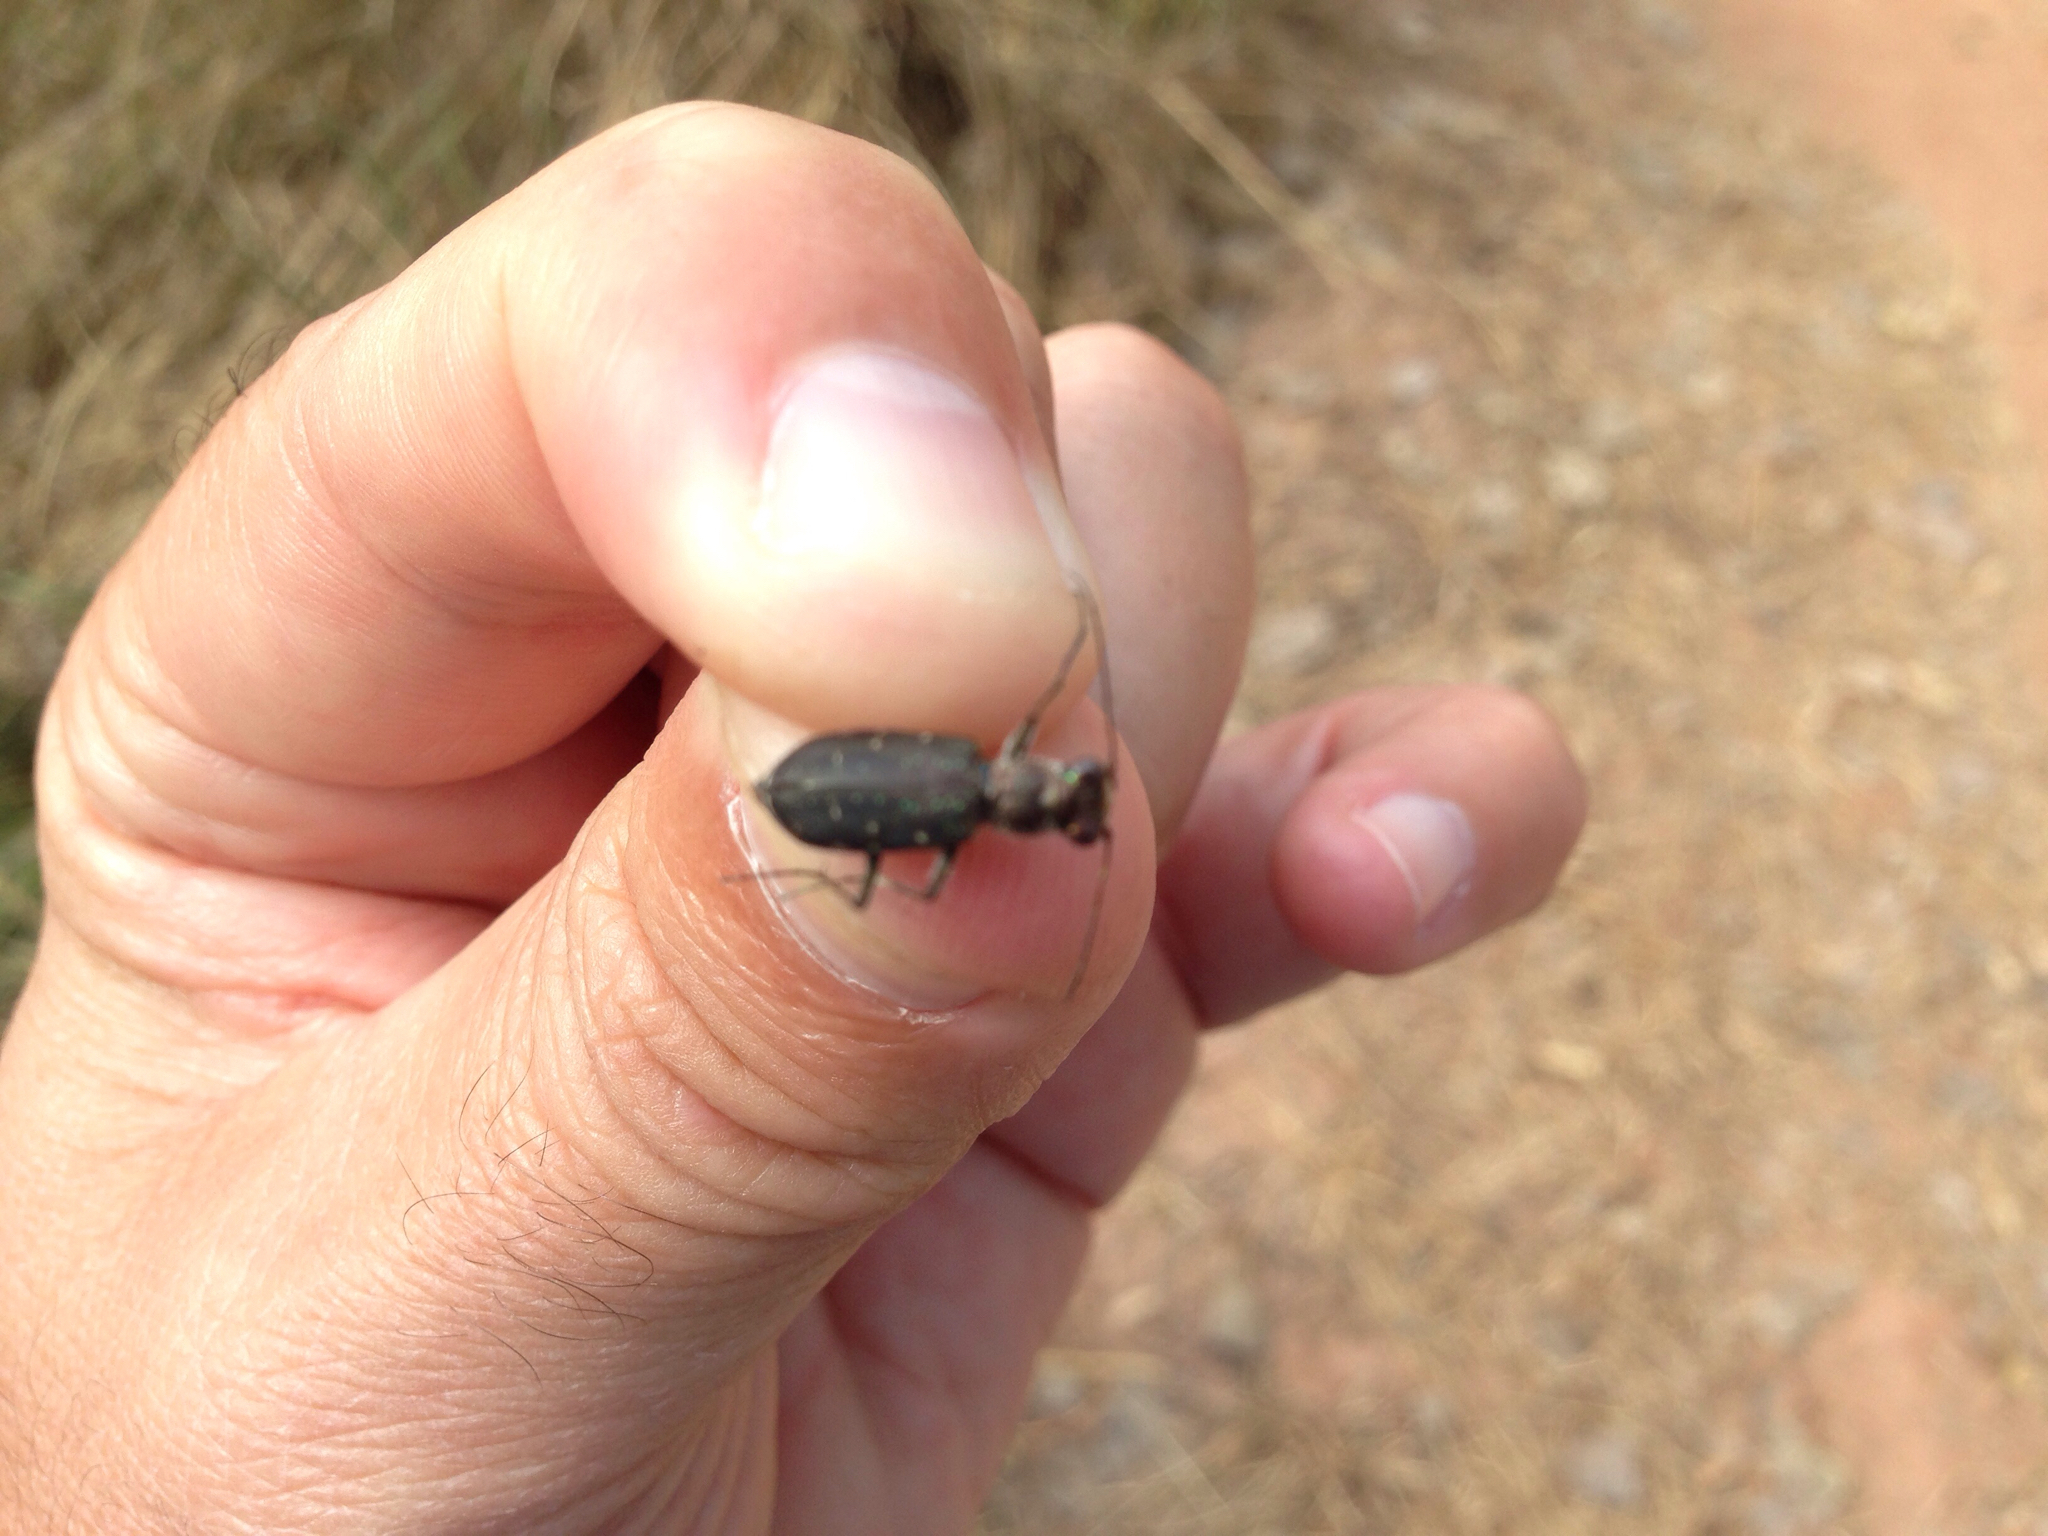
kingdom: Animalia
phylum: Arthropoda
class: Insecta
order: Coleoptera
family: Carabidae
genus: Cicindela
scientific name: Cicindela punctulata
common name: Punctured tiger beetle
